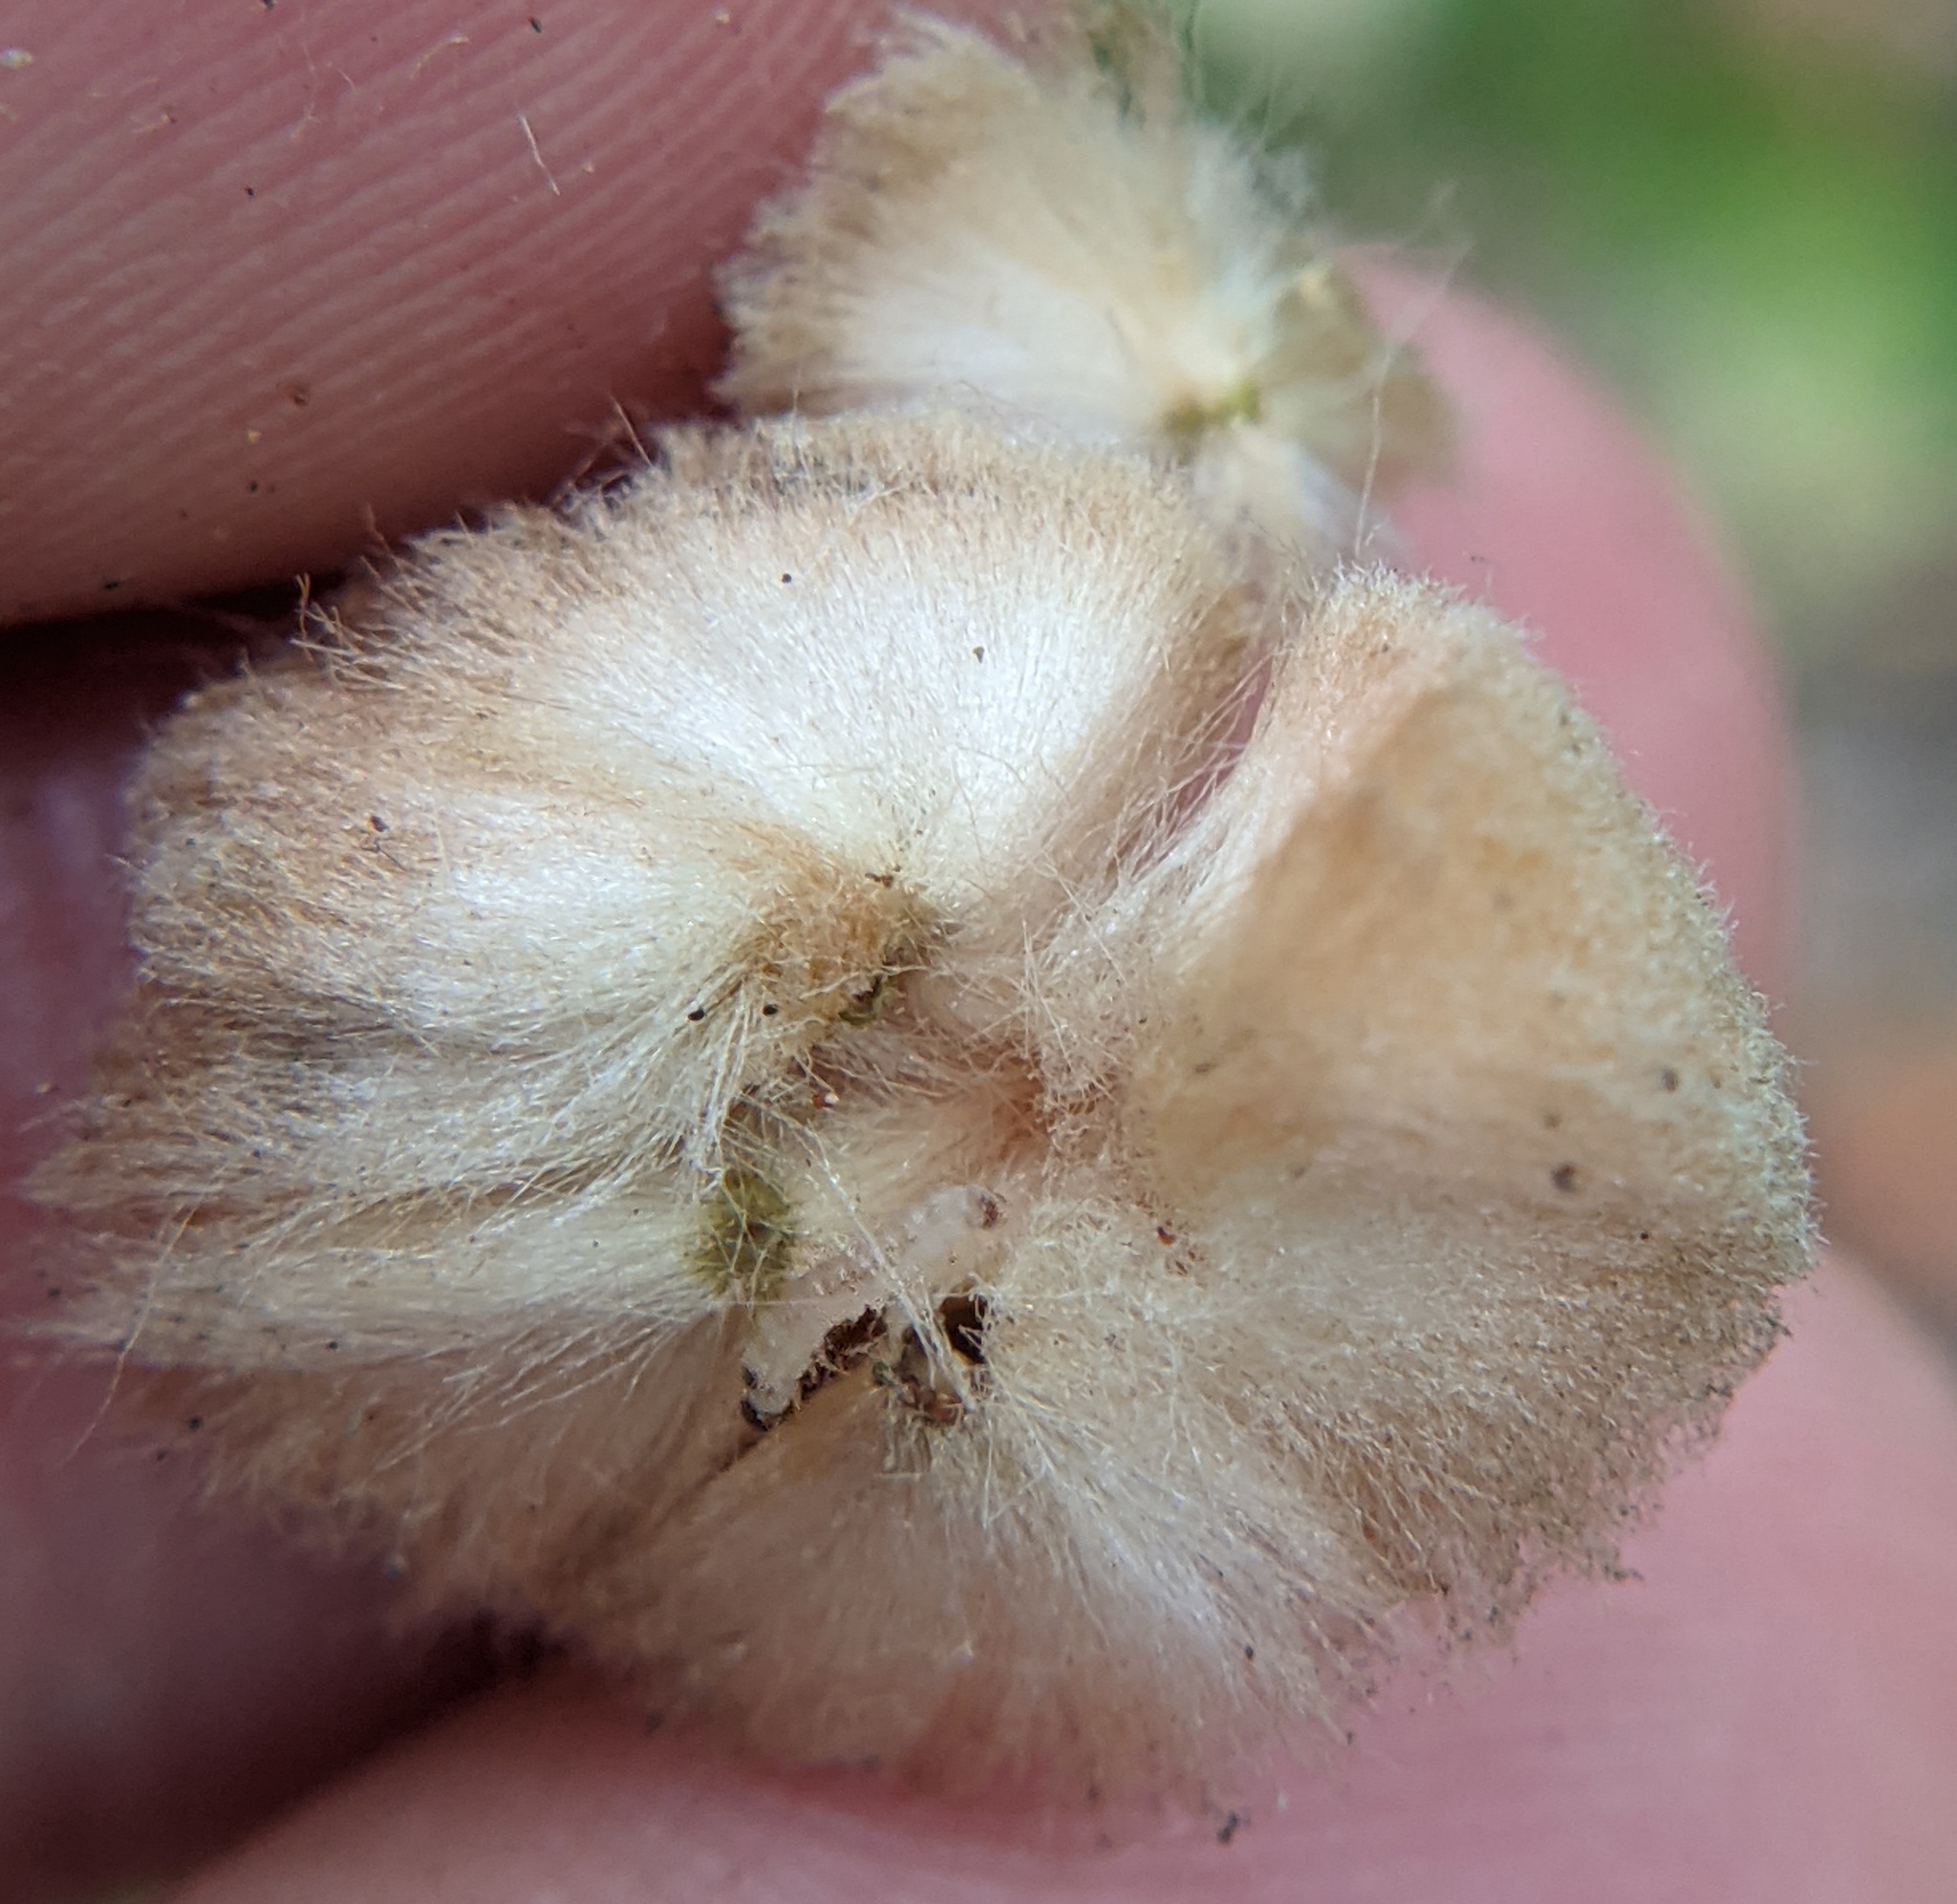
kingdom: Animalia
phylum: Arthropoda
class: Insecta
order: Hymenoptera
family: Cynipidae
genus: Callirhytis
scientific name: Callirhytis
